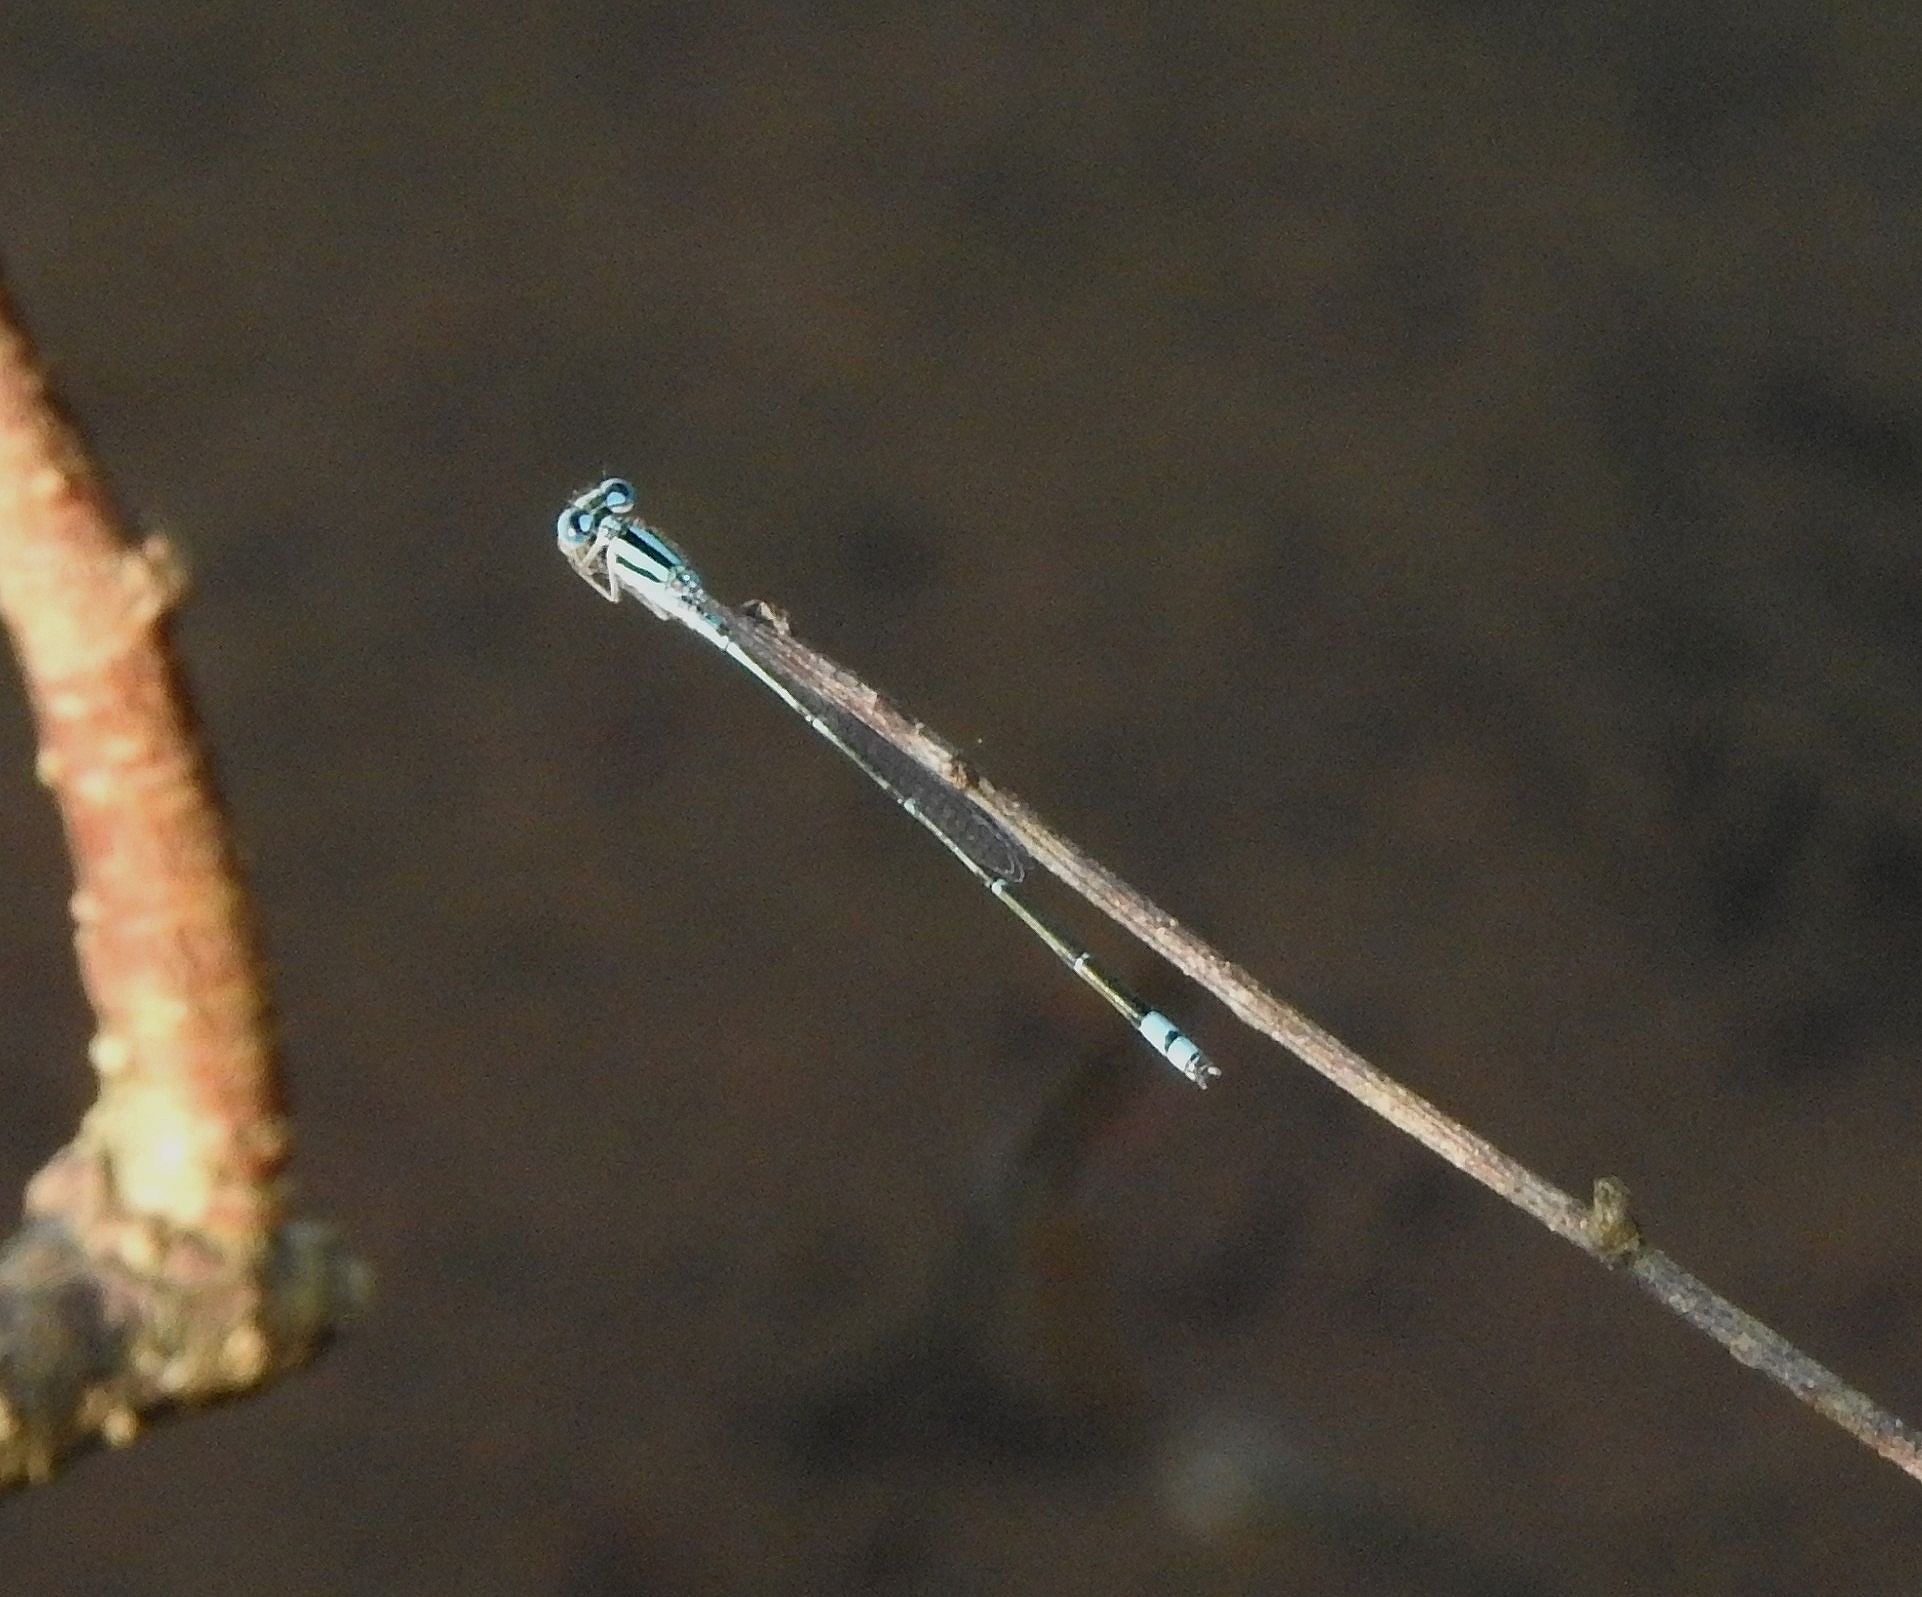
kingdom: Animalia
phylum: Arthropoda
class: Insecta
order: Odonata
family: Coenagrionidae
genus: Pseudagrion
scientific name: Pseudagrion microcephalum
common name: Blue riverdamsel
